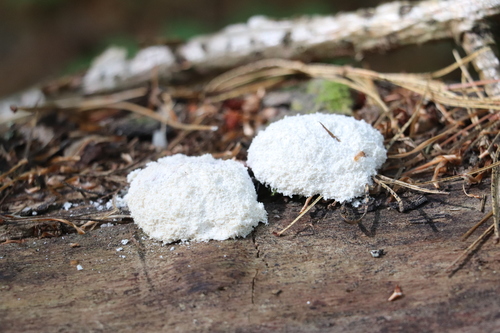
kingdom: Protozoa
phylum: Mycetozoa
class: Myxomycetes
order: Physarales
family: Physaraceae
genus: Fuligo
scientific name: Fuligo septica
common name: Dog vomit slime mold
